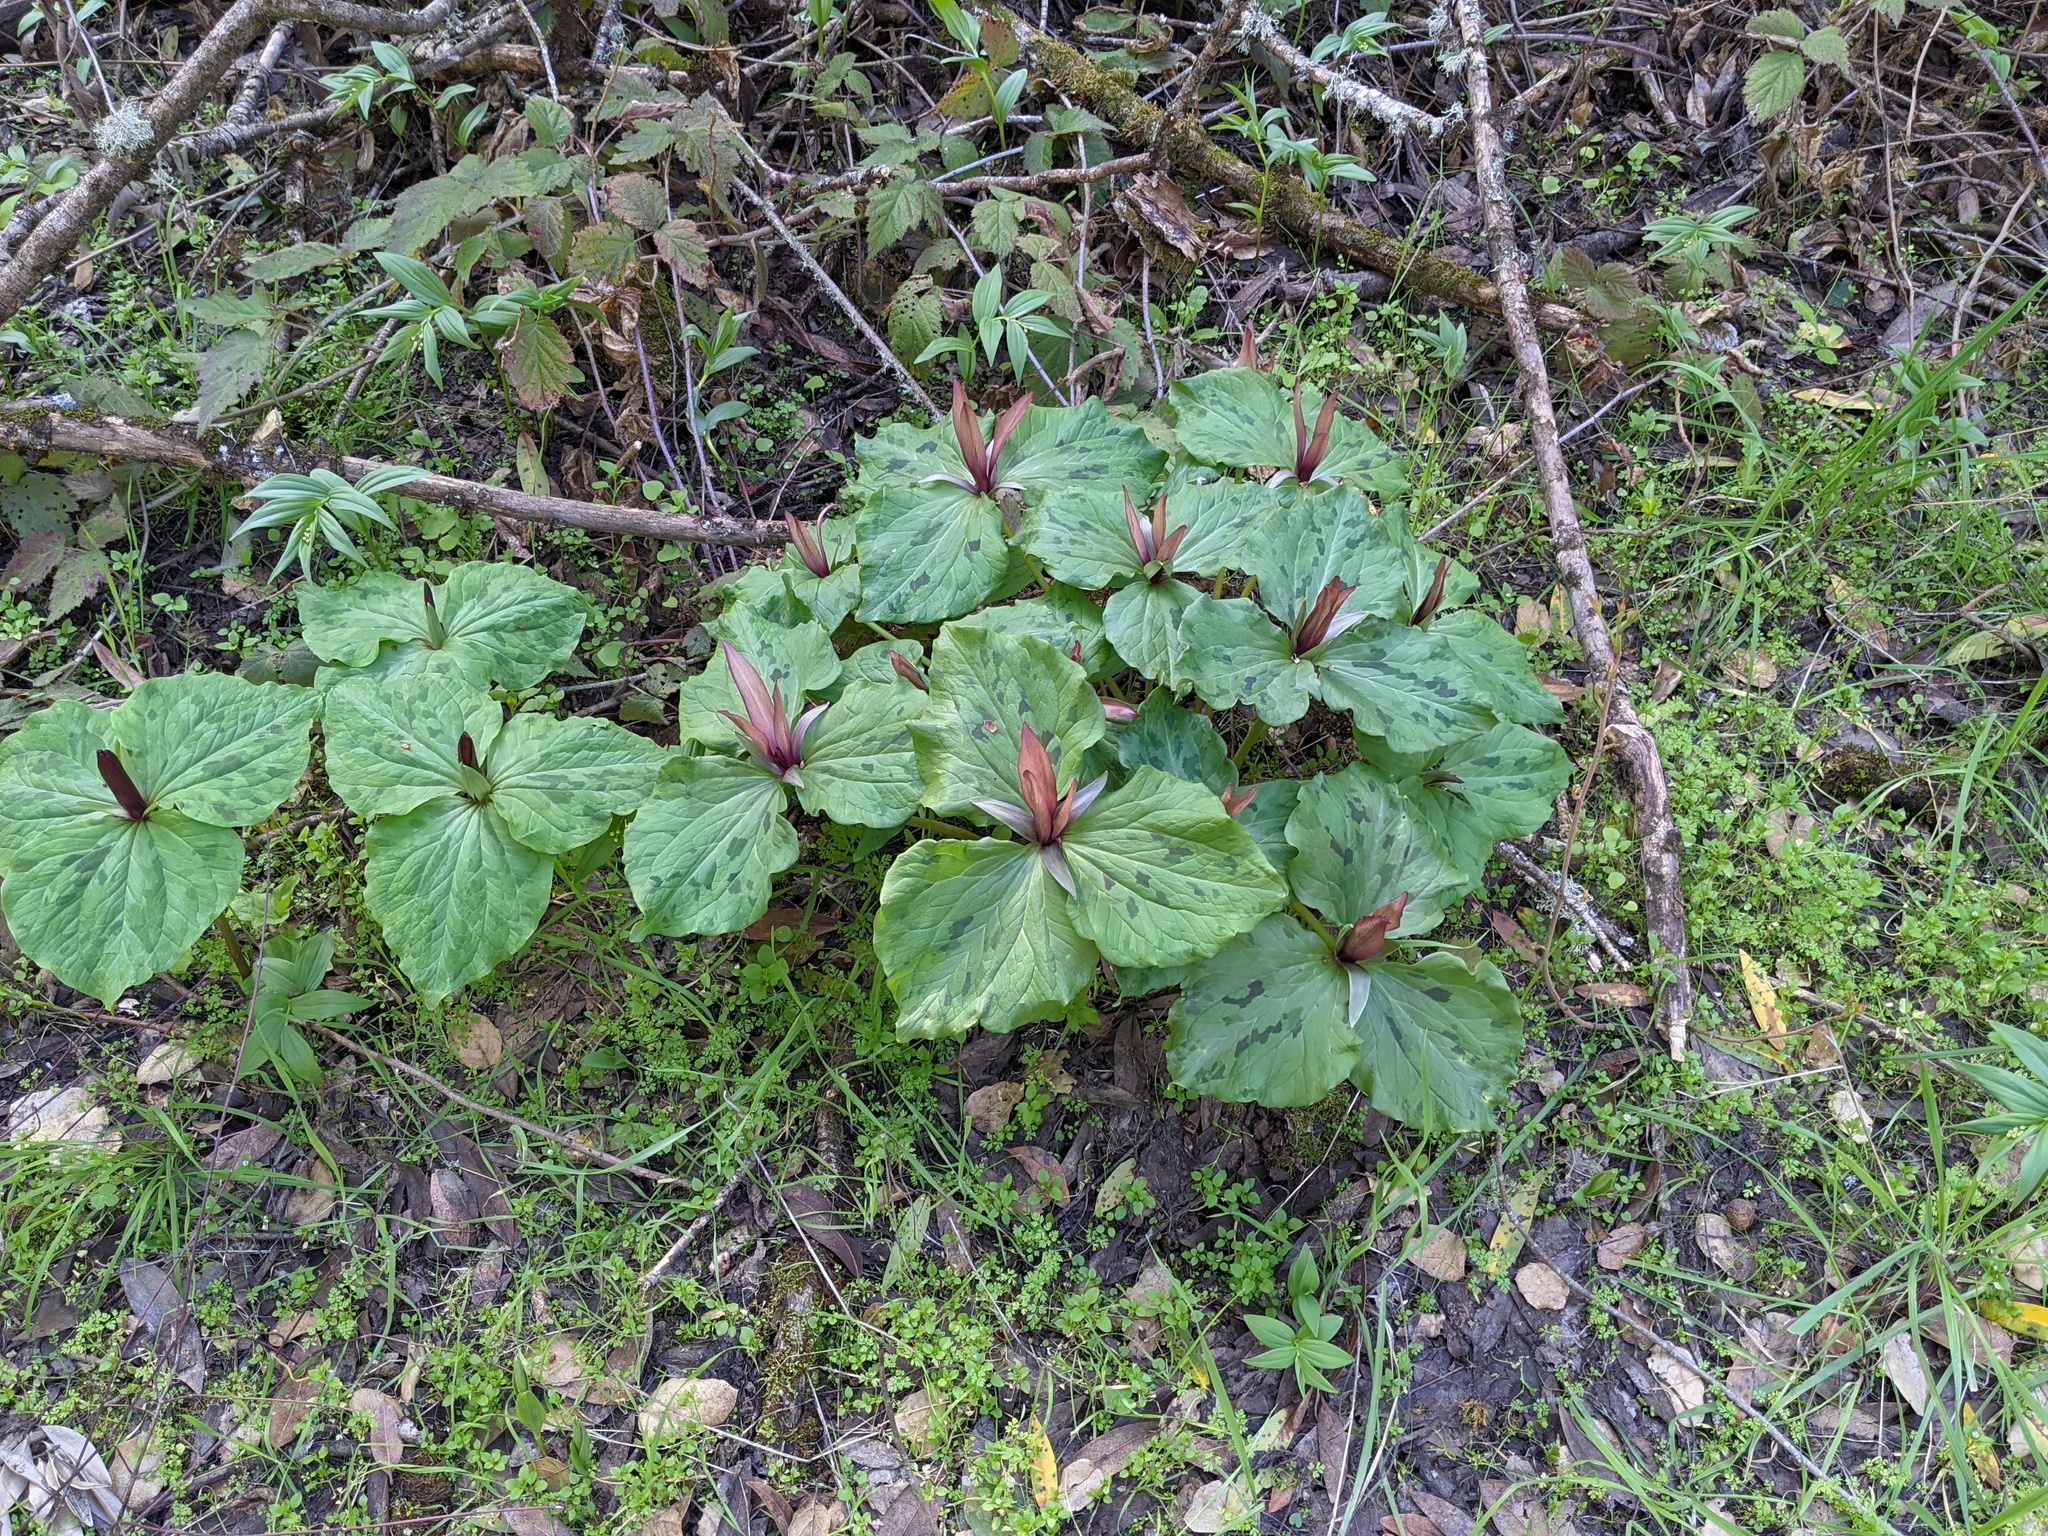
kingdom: Plantae
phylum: Tracheophyta
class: Liliopsida
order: Liliales
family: Melanthiaceae
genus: Trillium
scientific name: Trillium chloropetalum
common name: Giant trillium
